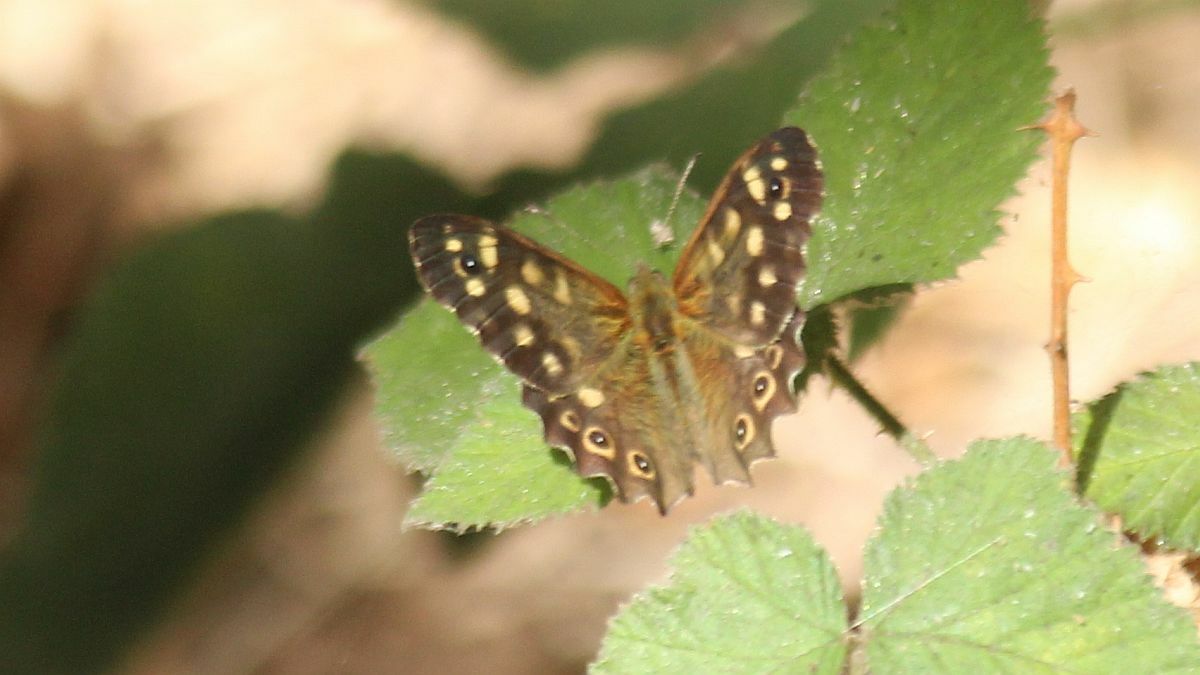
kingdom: Animalia
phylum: Arthropoda
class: Insecta
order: Lepidoptera
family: Nymphalidae
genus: Pararge
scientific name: Pararge aegeria
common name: Speckled wood
